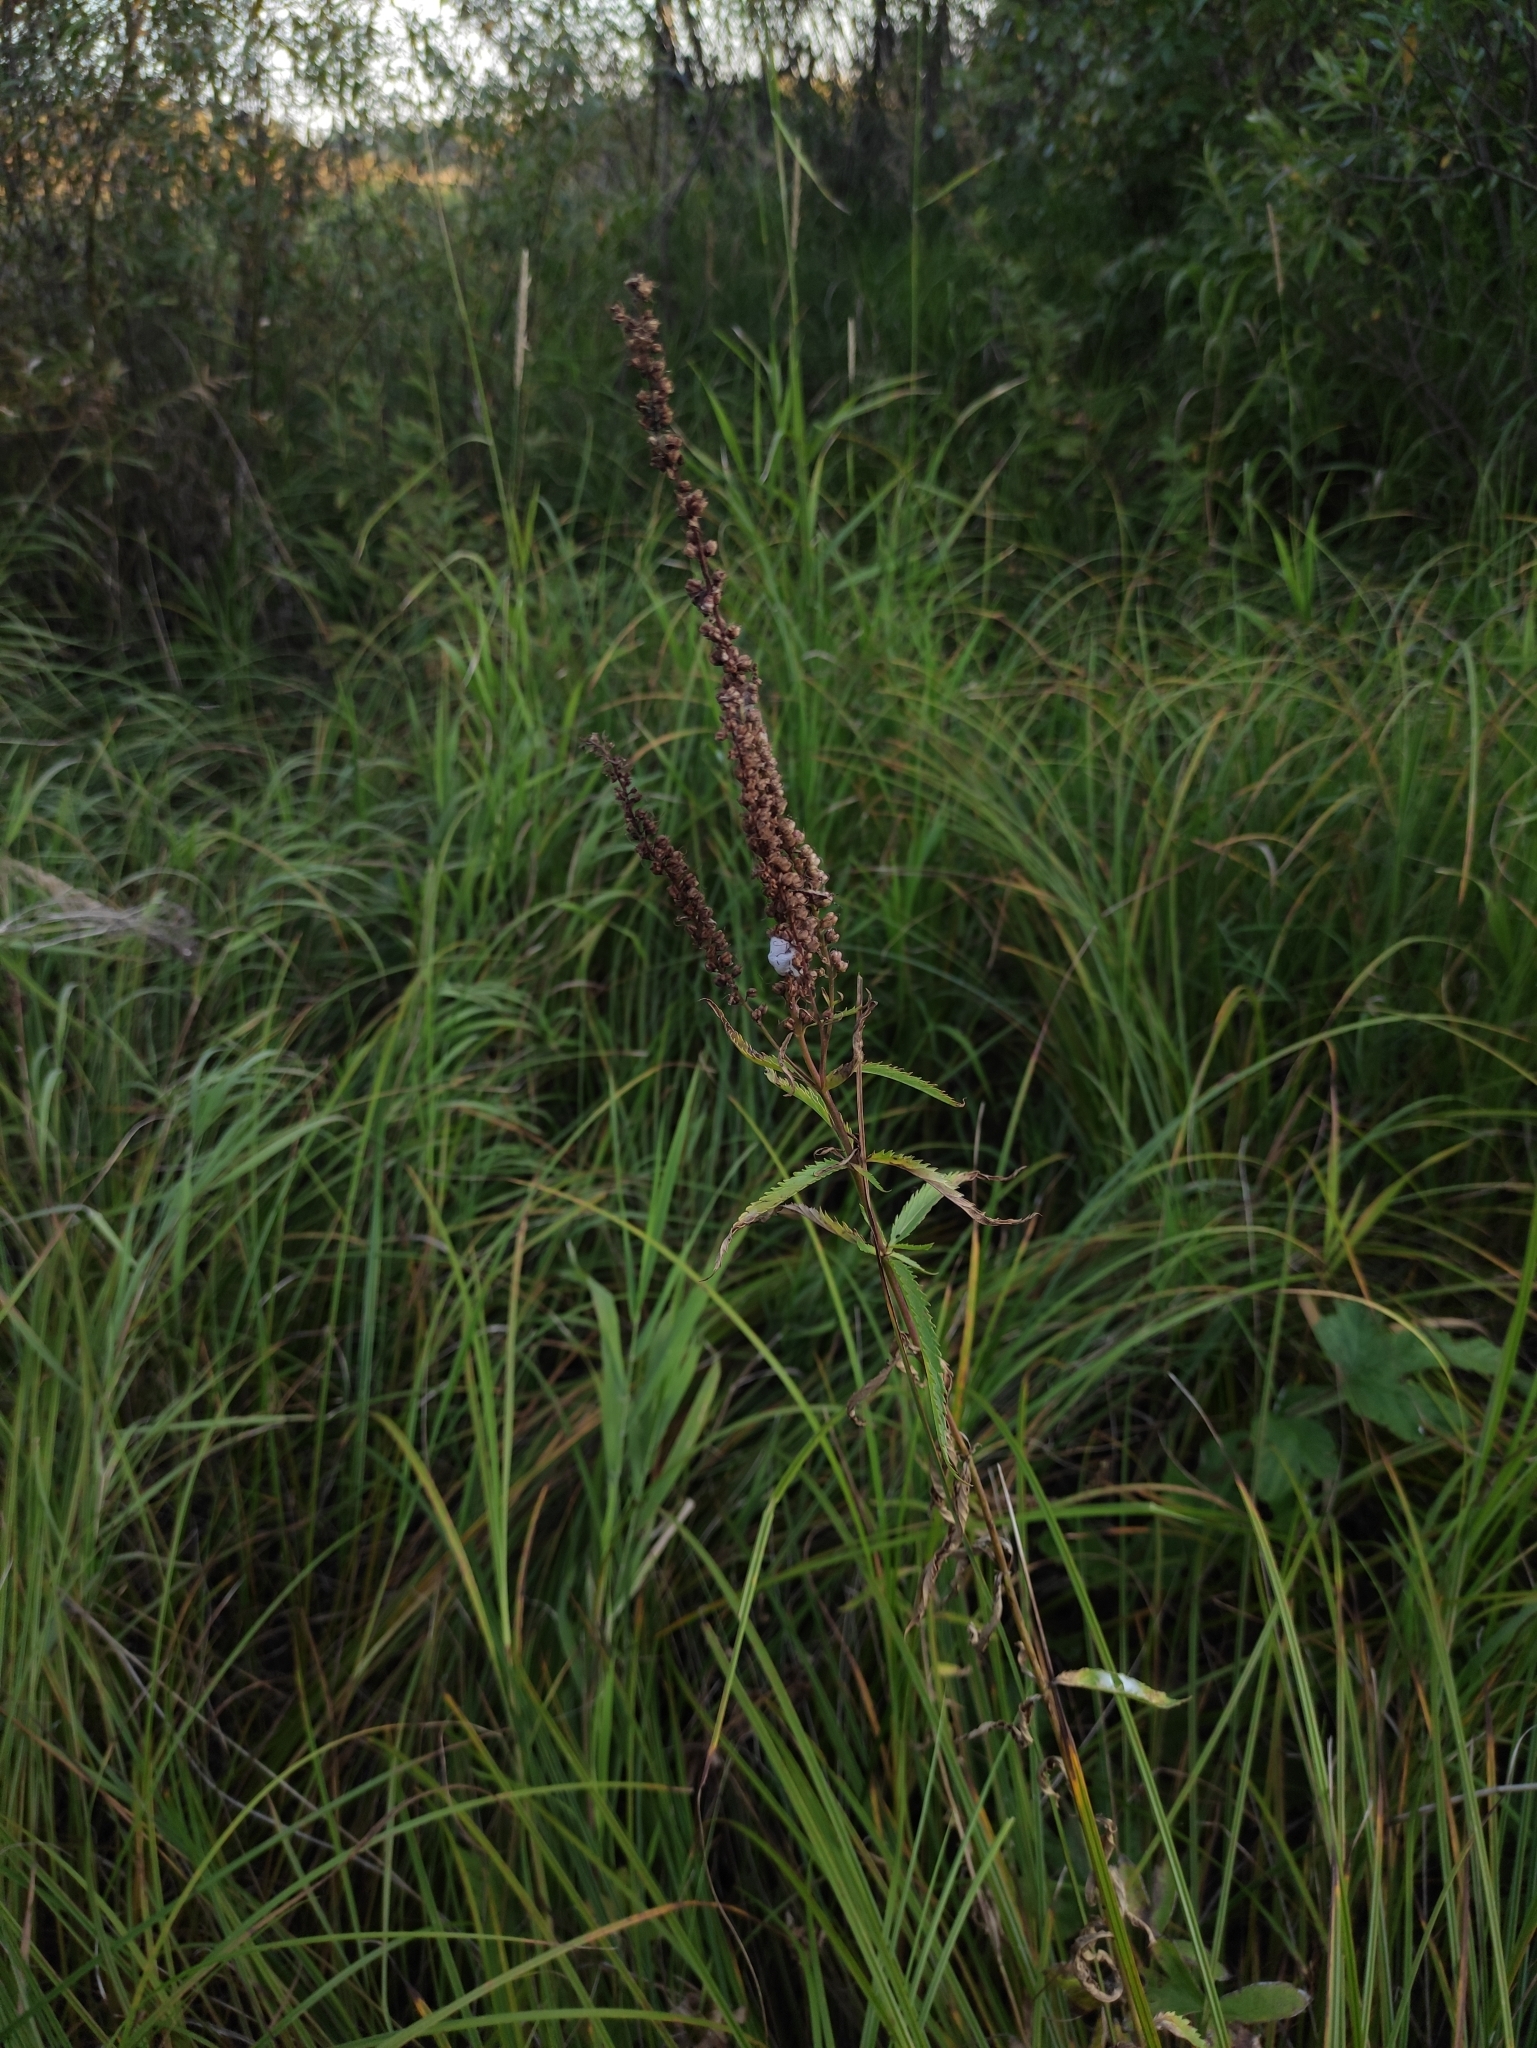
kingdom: Plantae
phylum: Tracheophyta
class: Magnoliopsida
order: Lamiales
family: Plantaginaceae
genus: Veronica
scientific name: Veronica longifolia
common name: Garden speedwell
